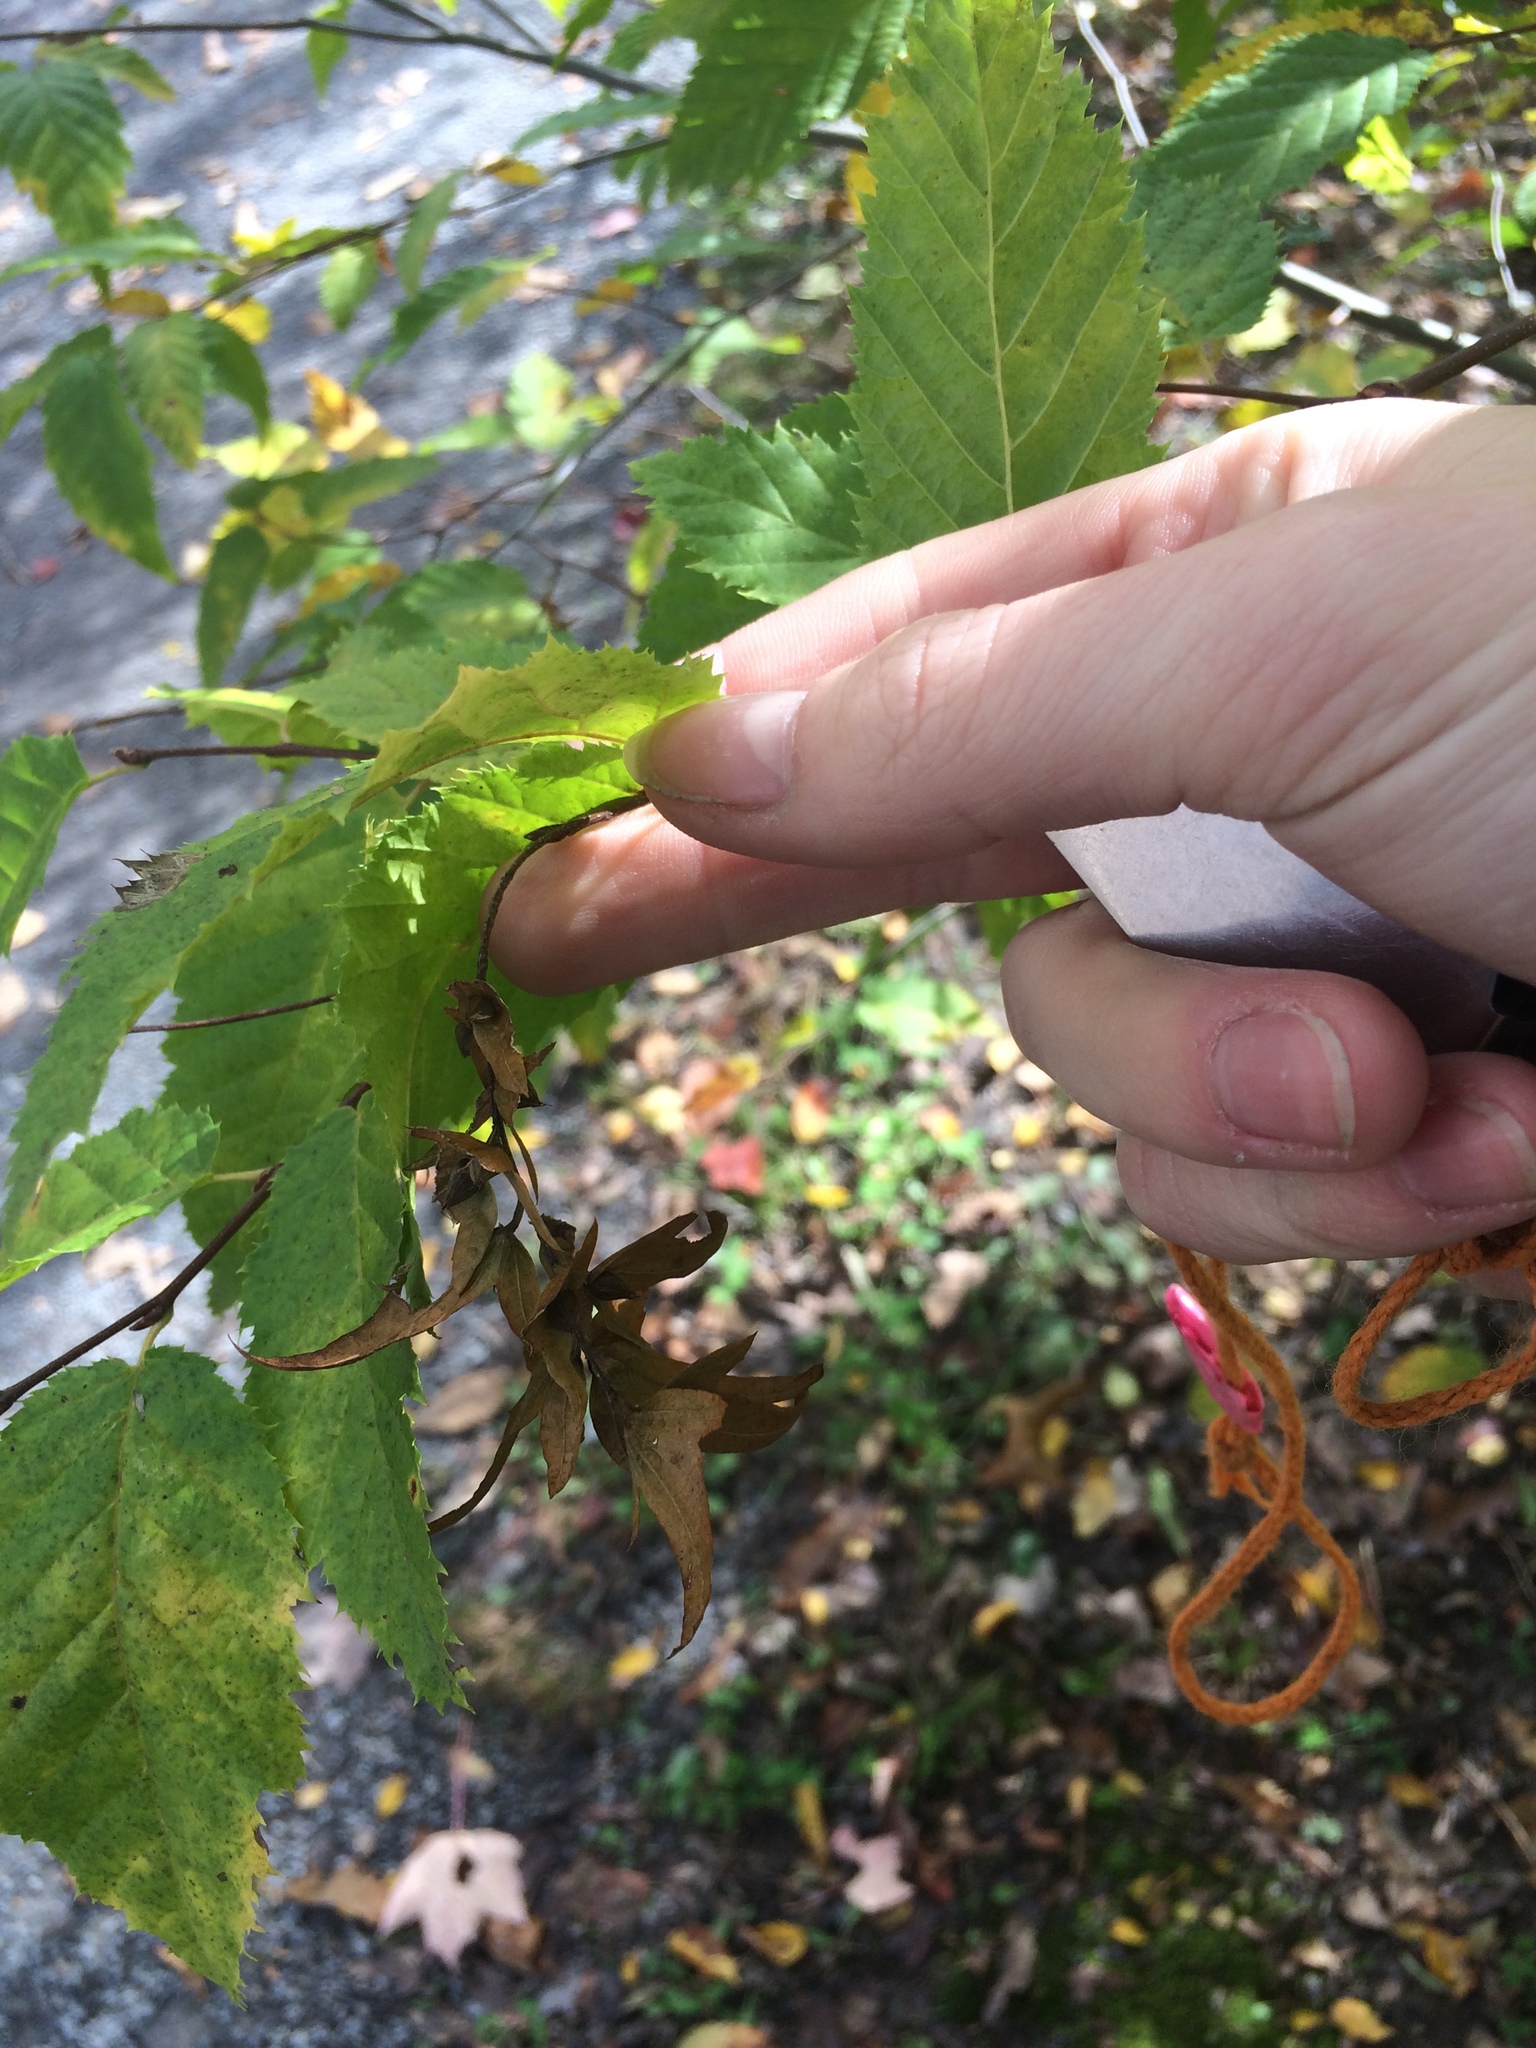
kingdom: Plantae
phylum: Tracheophyta
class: Magnoliopsida
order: Fagales
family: Betulaceae
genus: Carpinus
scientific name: Carpinus caroliniana
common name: American hornbeam
